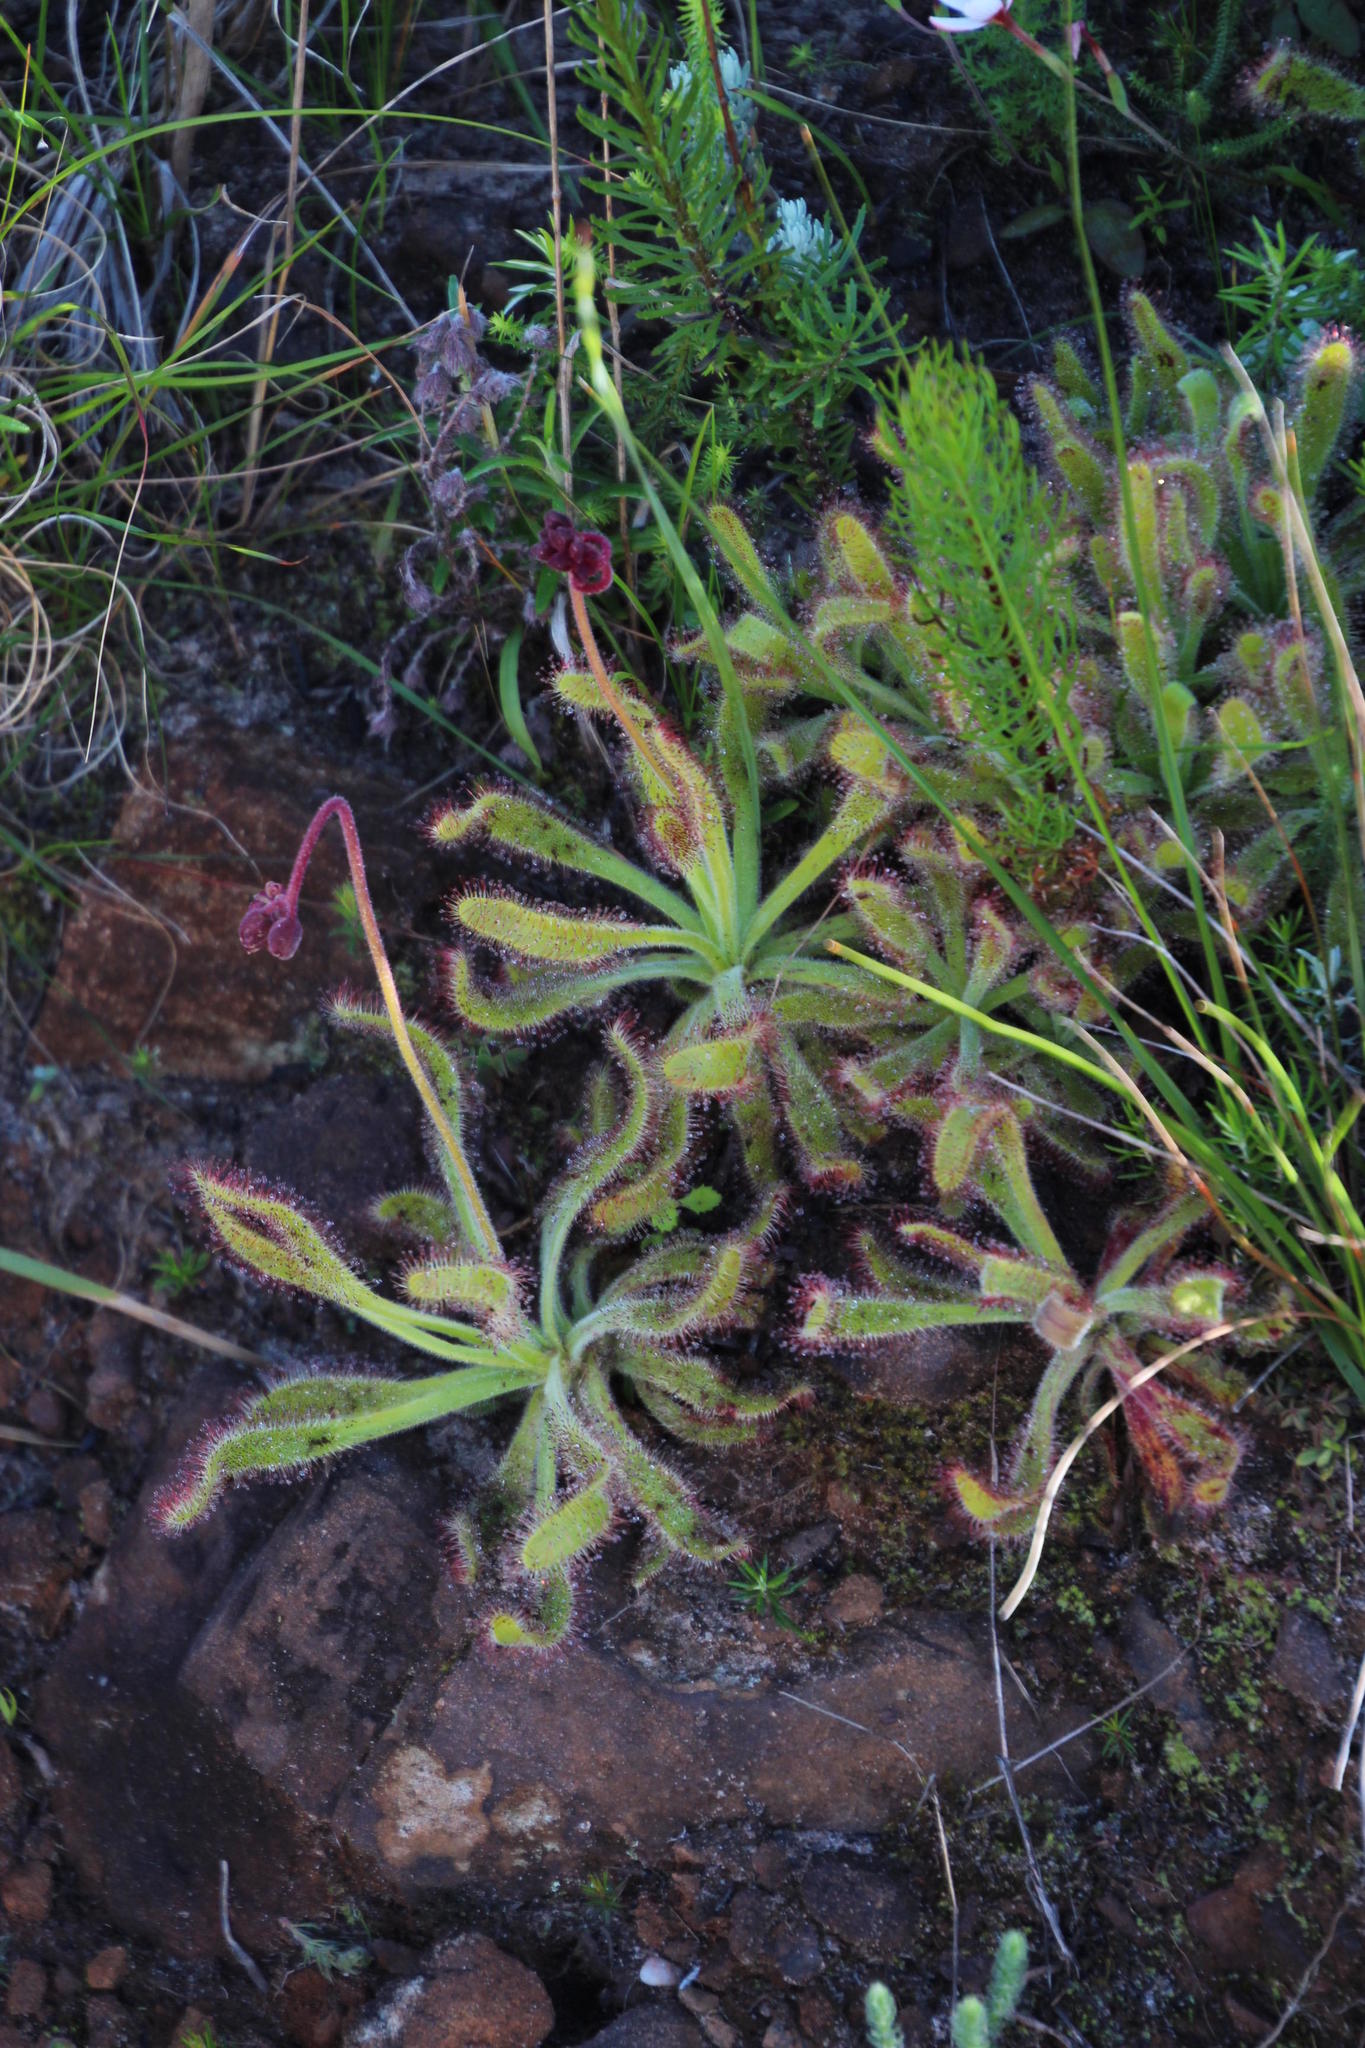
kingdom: Plantae
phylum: Tracheophyta
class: Magnoliopsida
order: Caryophyllales
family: Droseraceae
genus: Drosera
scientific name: Drosera hilaris
